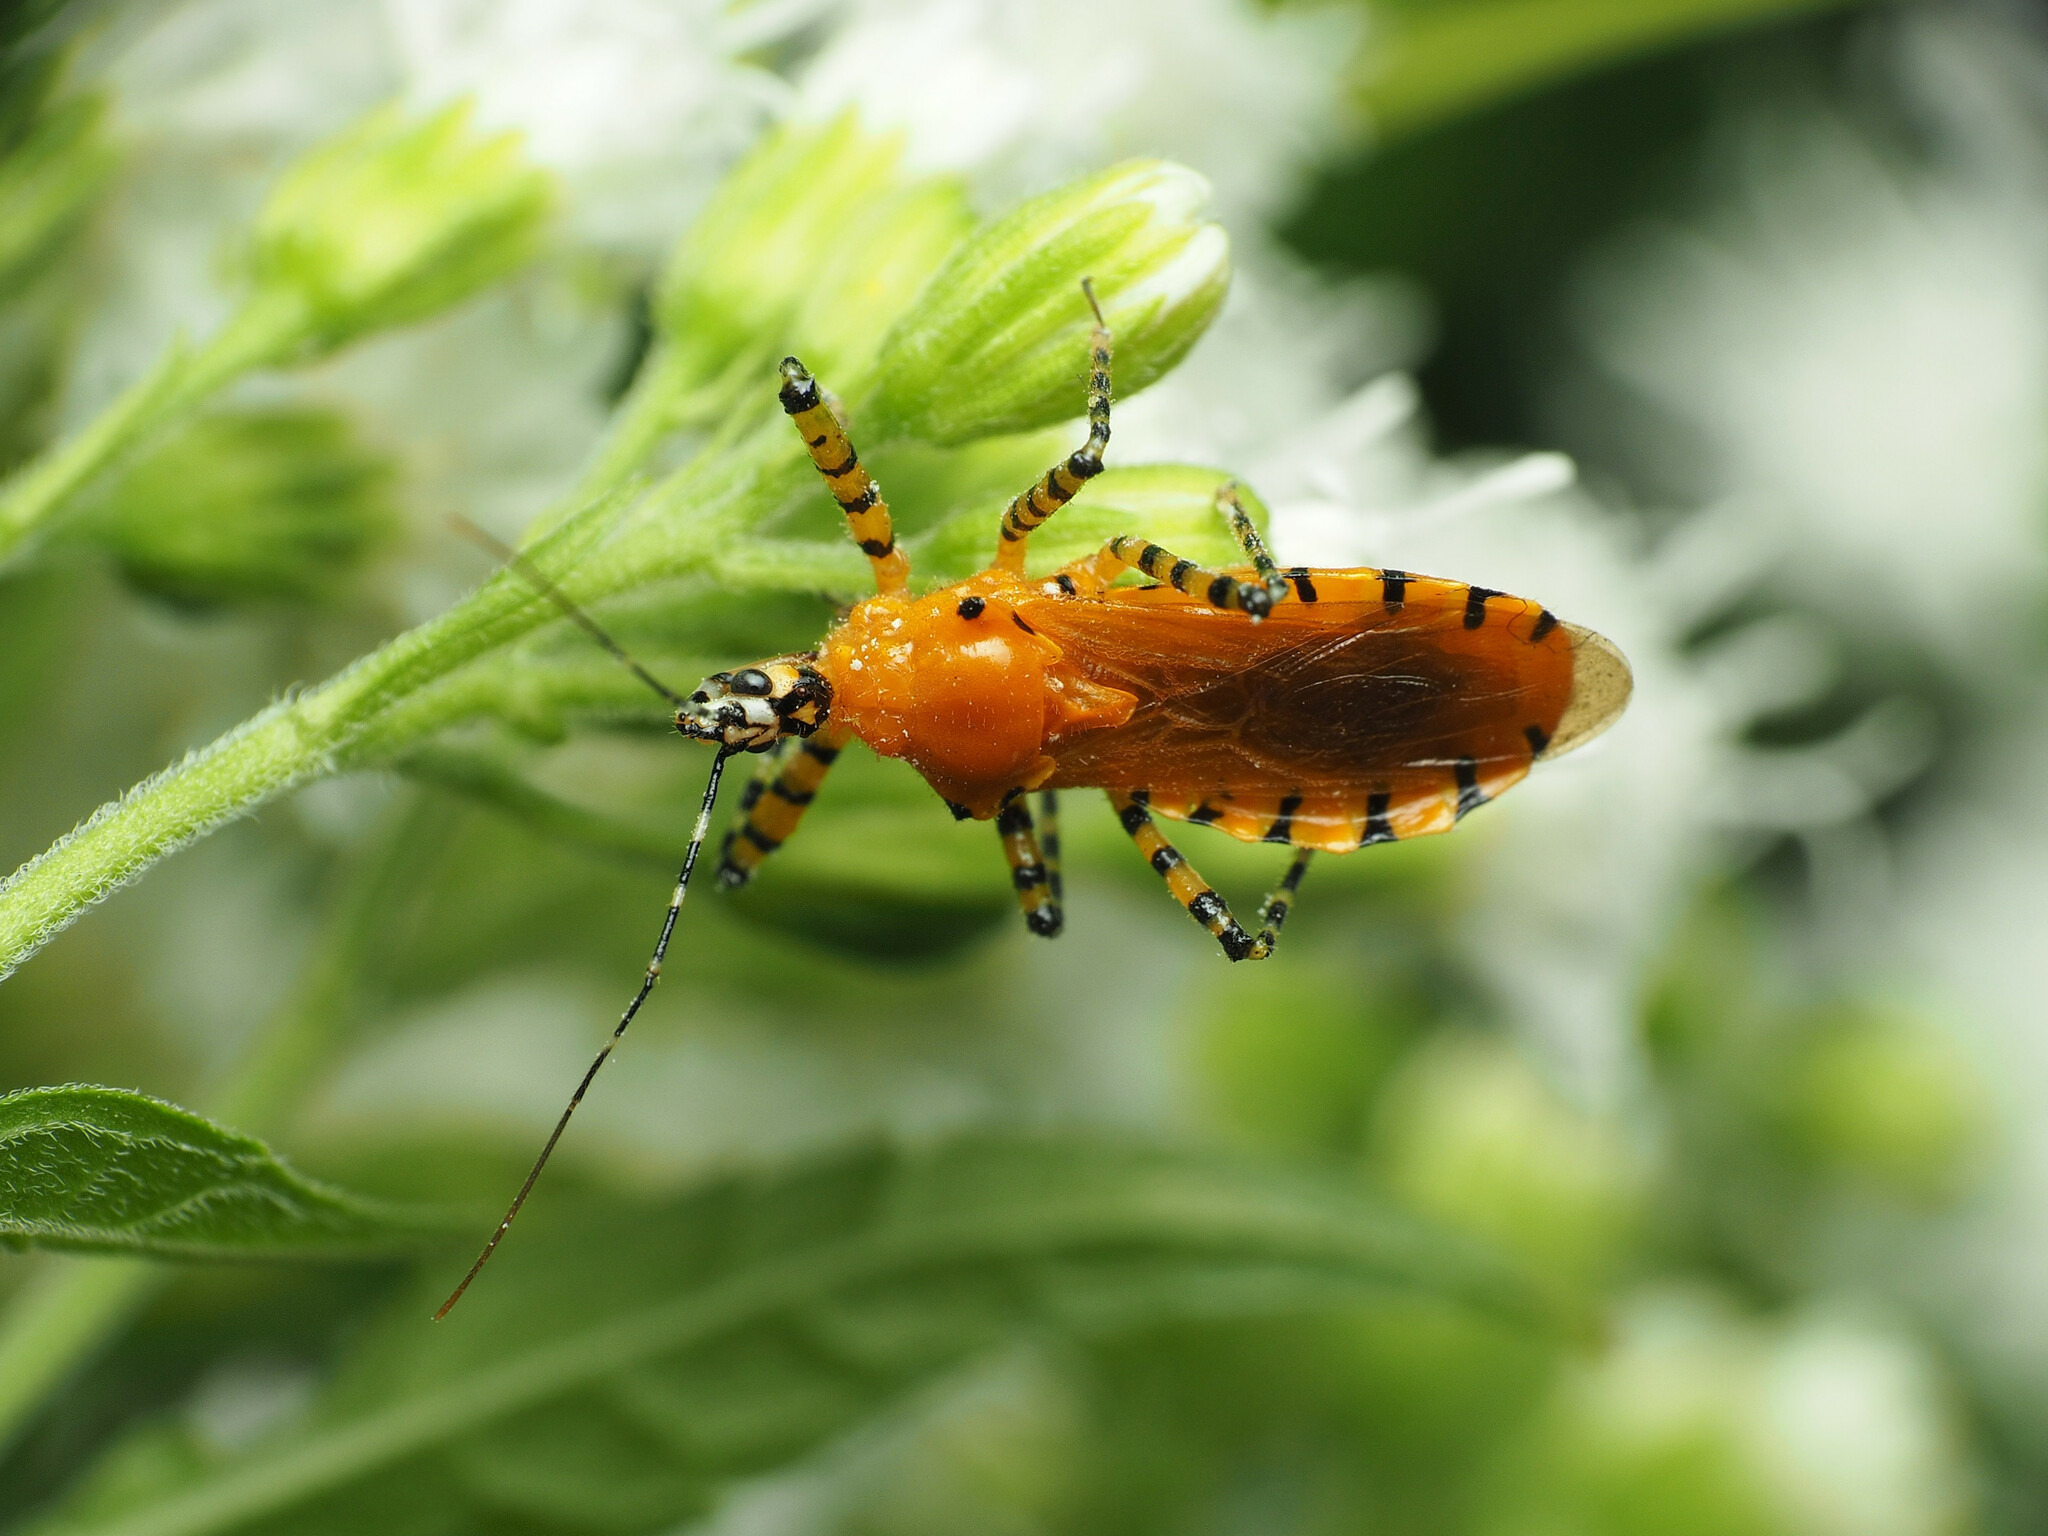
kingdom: Animalia
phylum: Arthropoda
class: Insecta
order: Hemiptera
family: Reduviidae
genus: Pselliopus
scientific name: Pselliopus barberi
